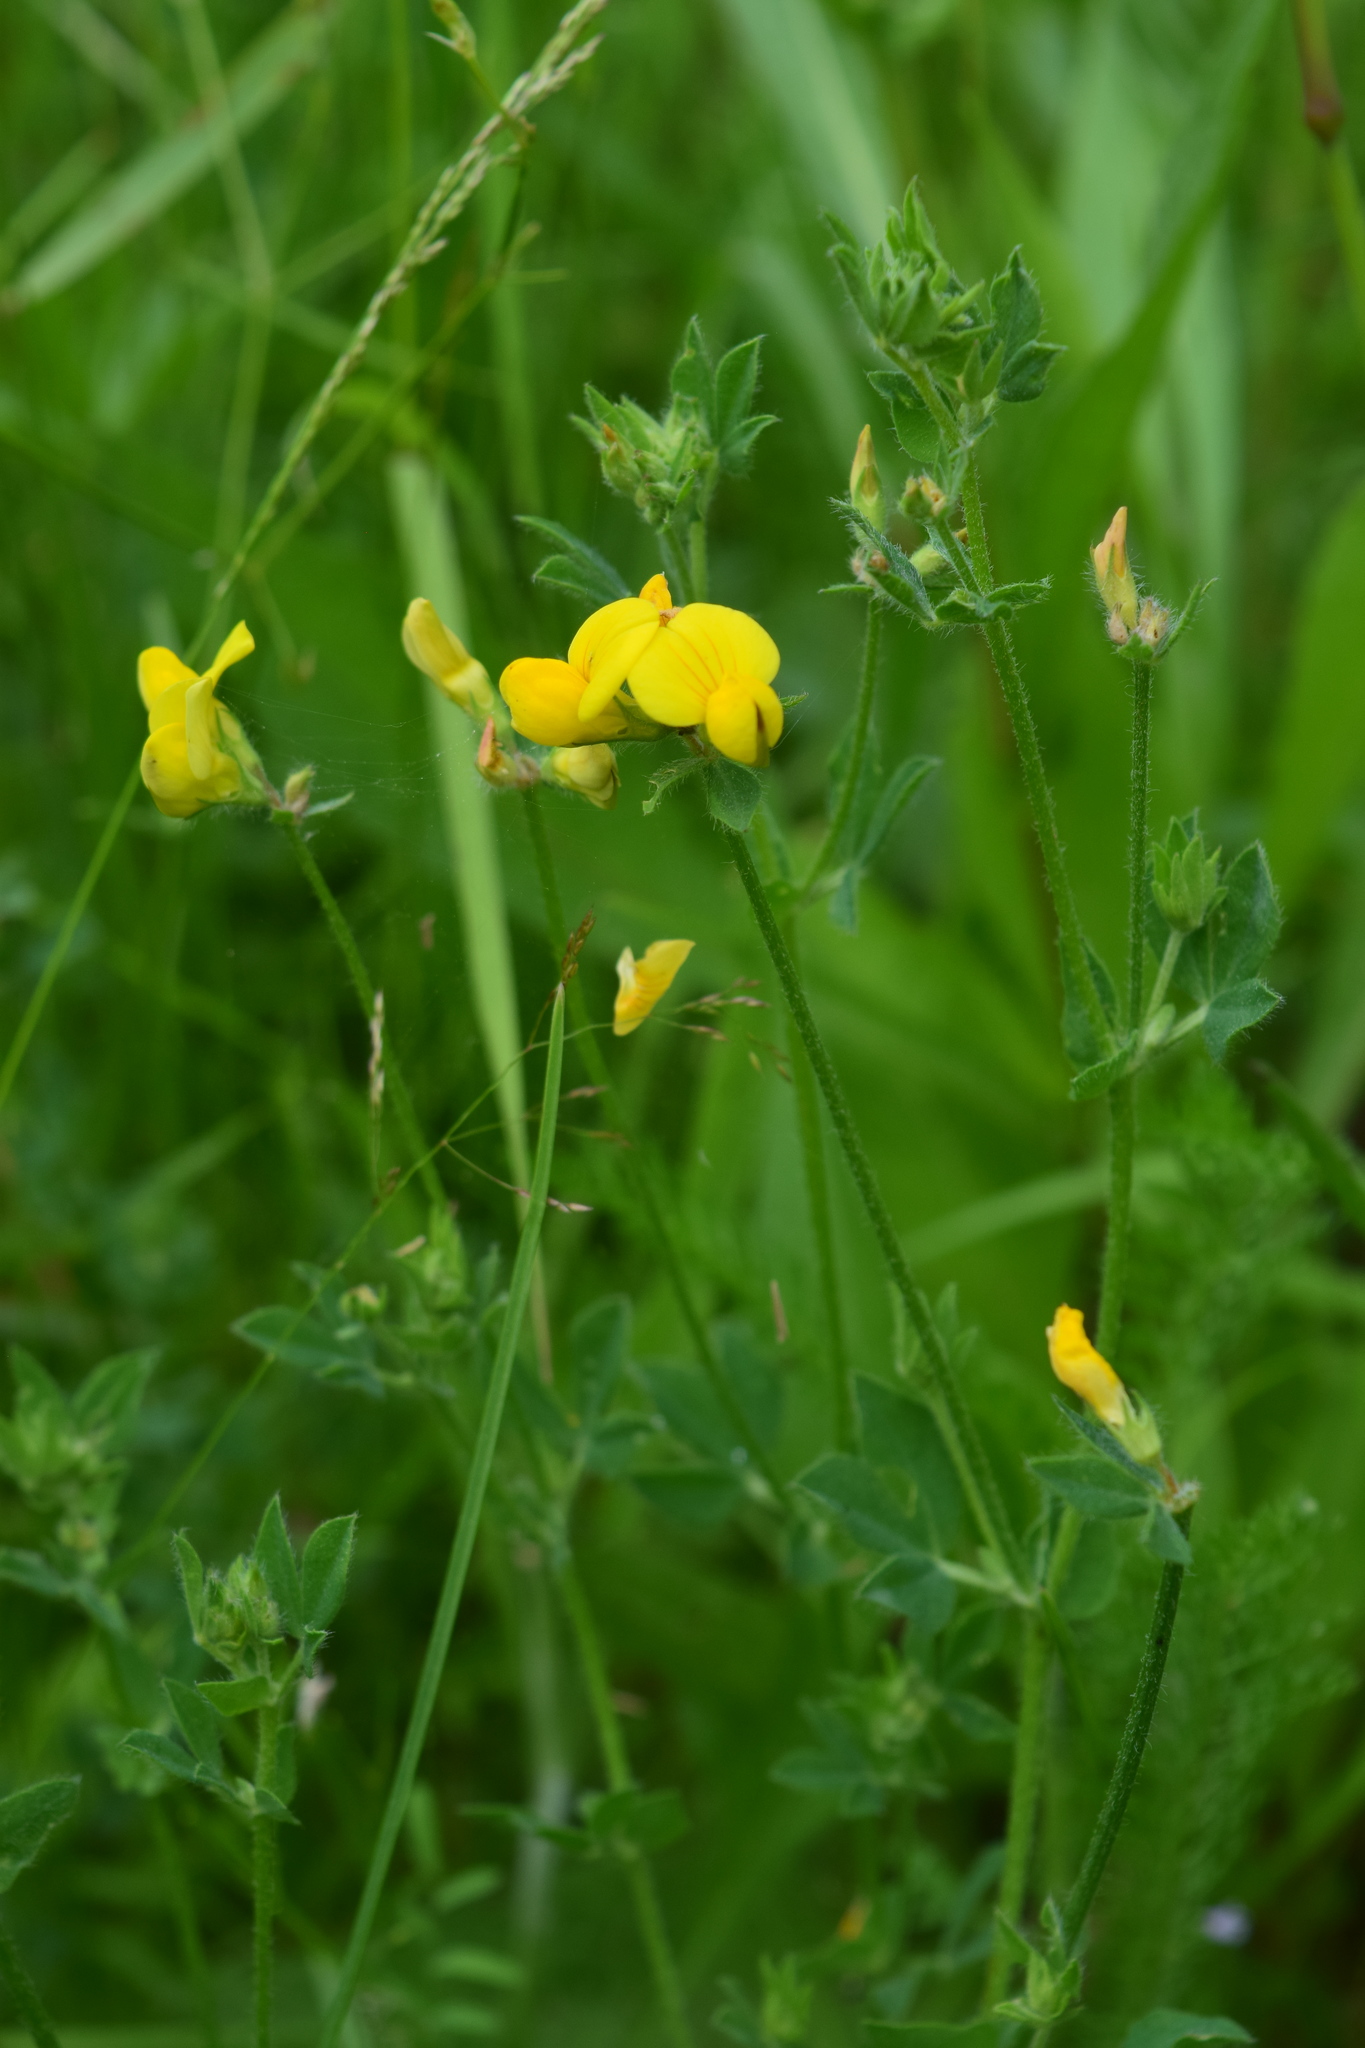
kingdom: Plantae
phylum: Tracheophyta
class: Magnoliopsida
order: Fabales
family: Fabaceae
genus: Lotus
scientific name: Lotus corniculatus
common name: Common bird's-foot-trefoil
